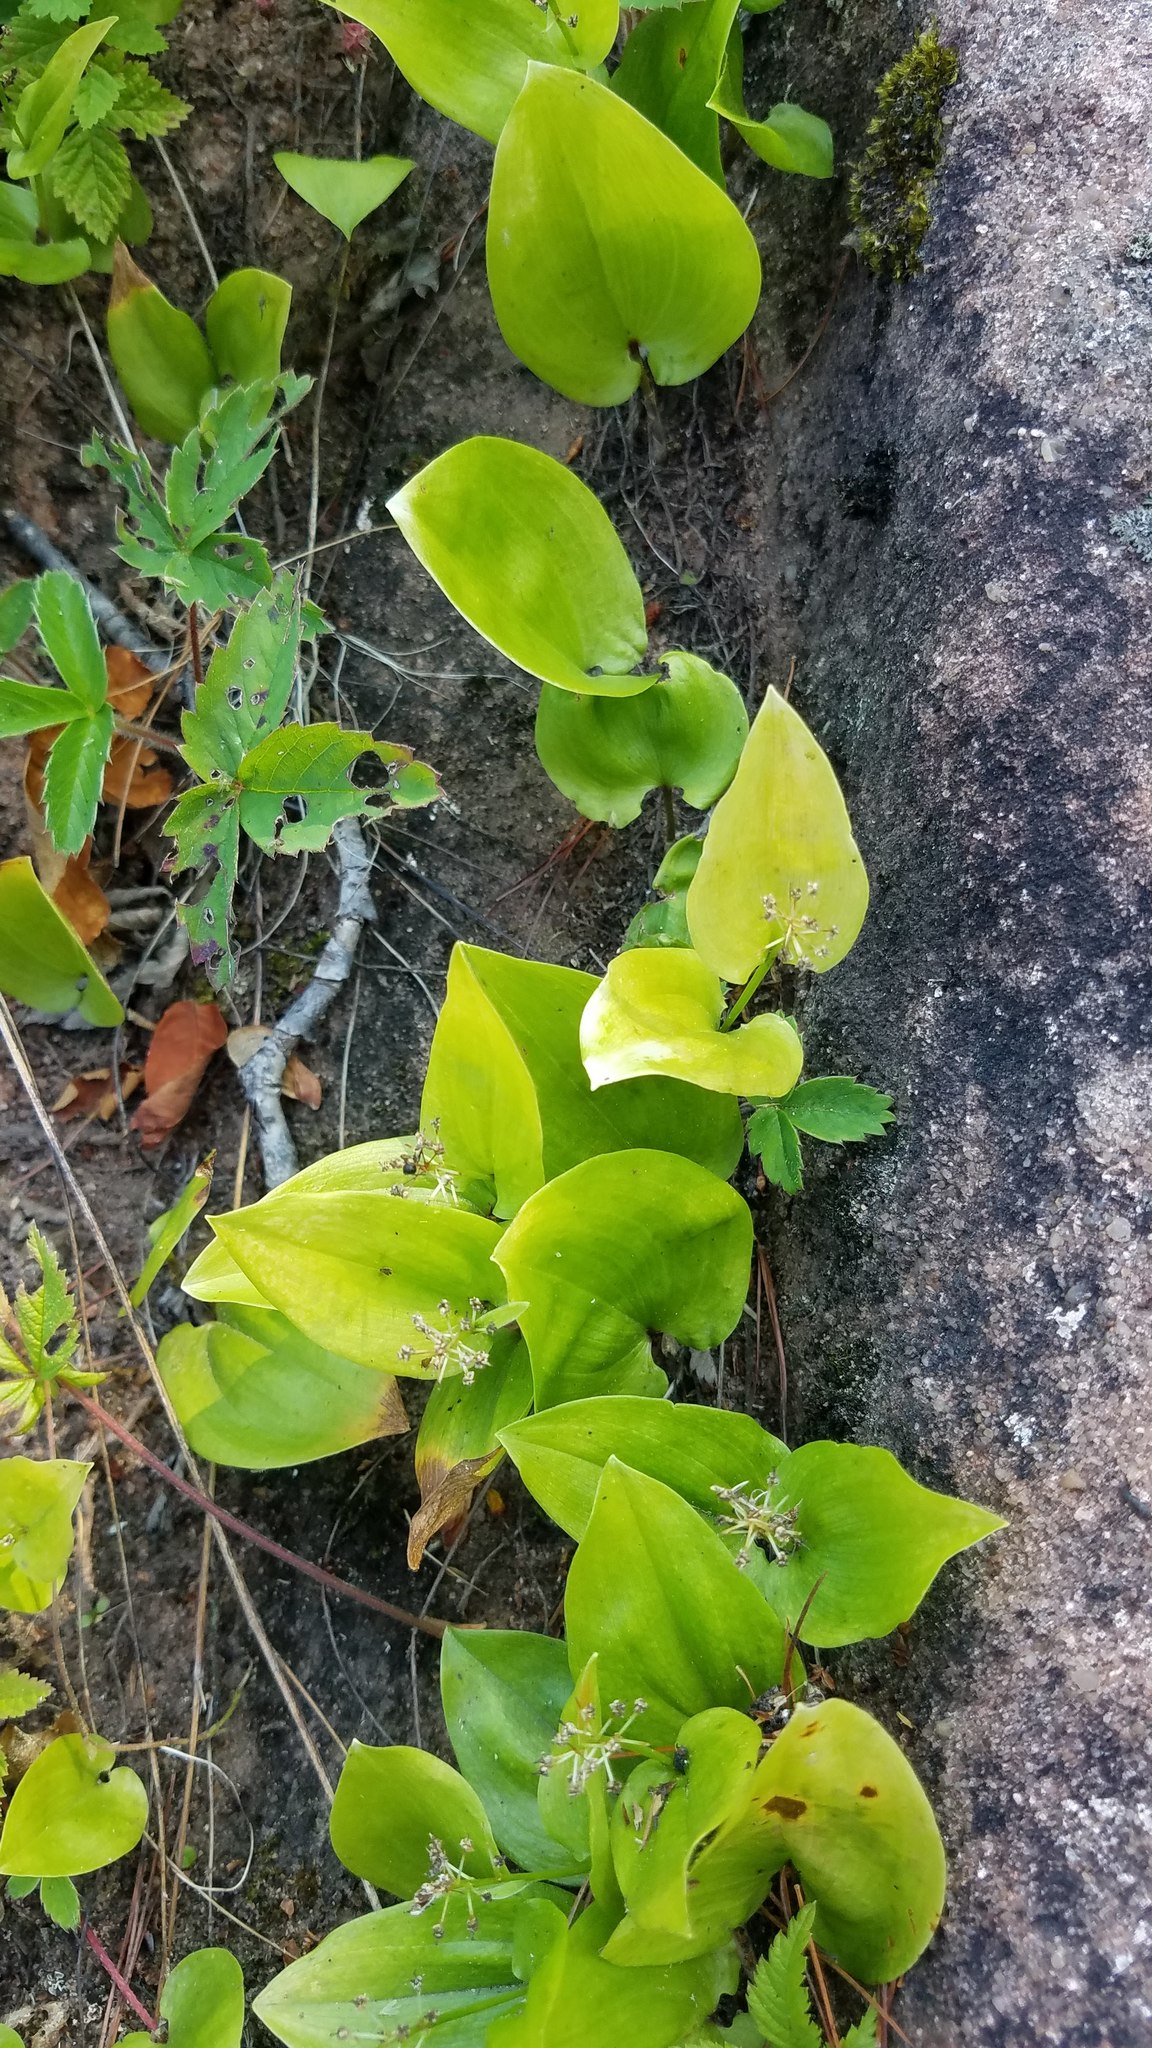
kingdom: Plantae
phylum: Tracheophyta
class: Liliopsida
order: Asparagales
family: Asparagaceae
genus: Maianthemum
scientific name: Maianthemum canadense
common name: False lily-of-the-valley
